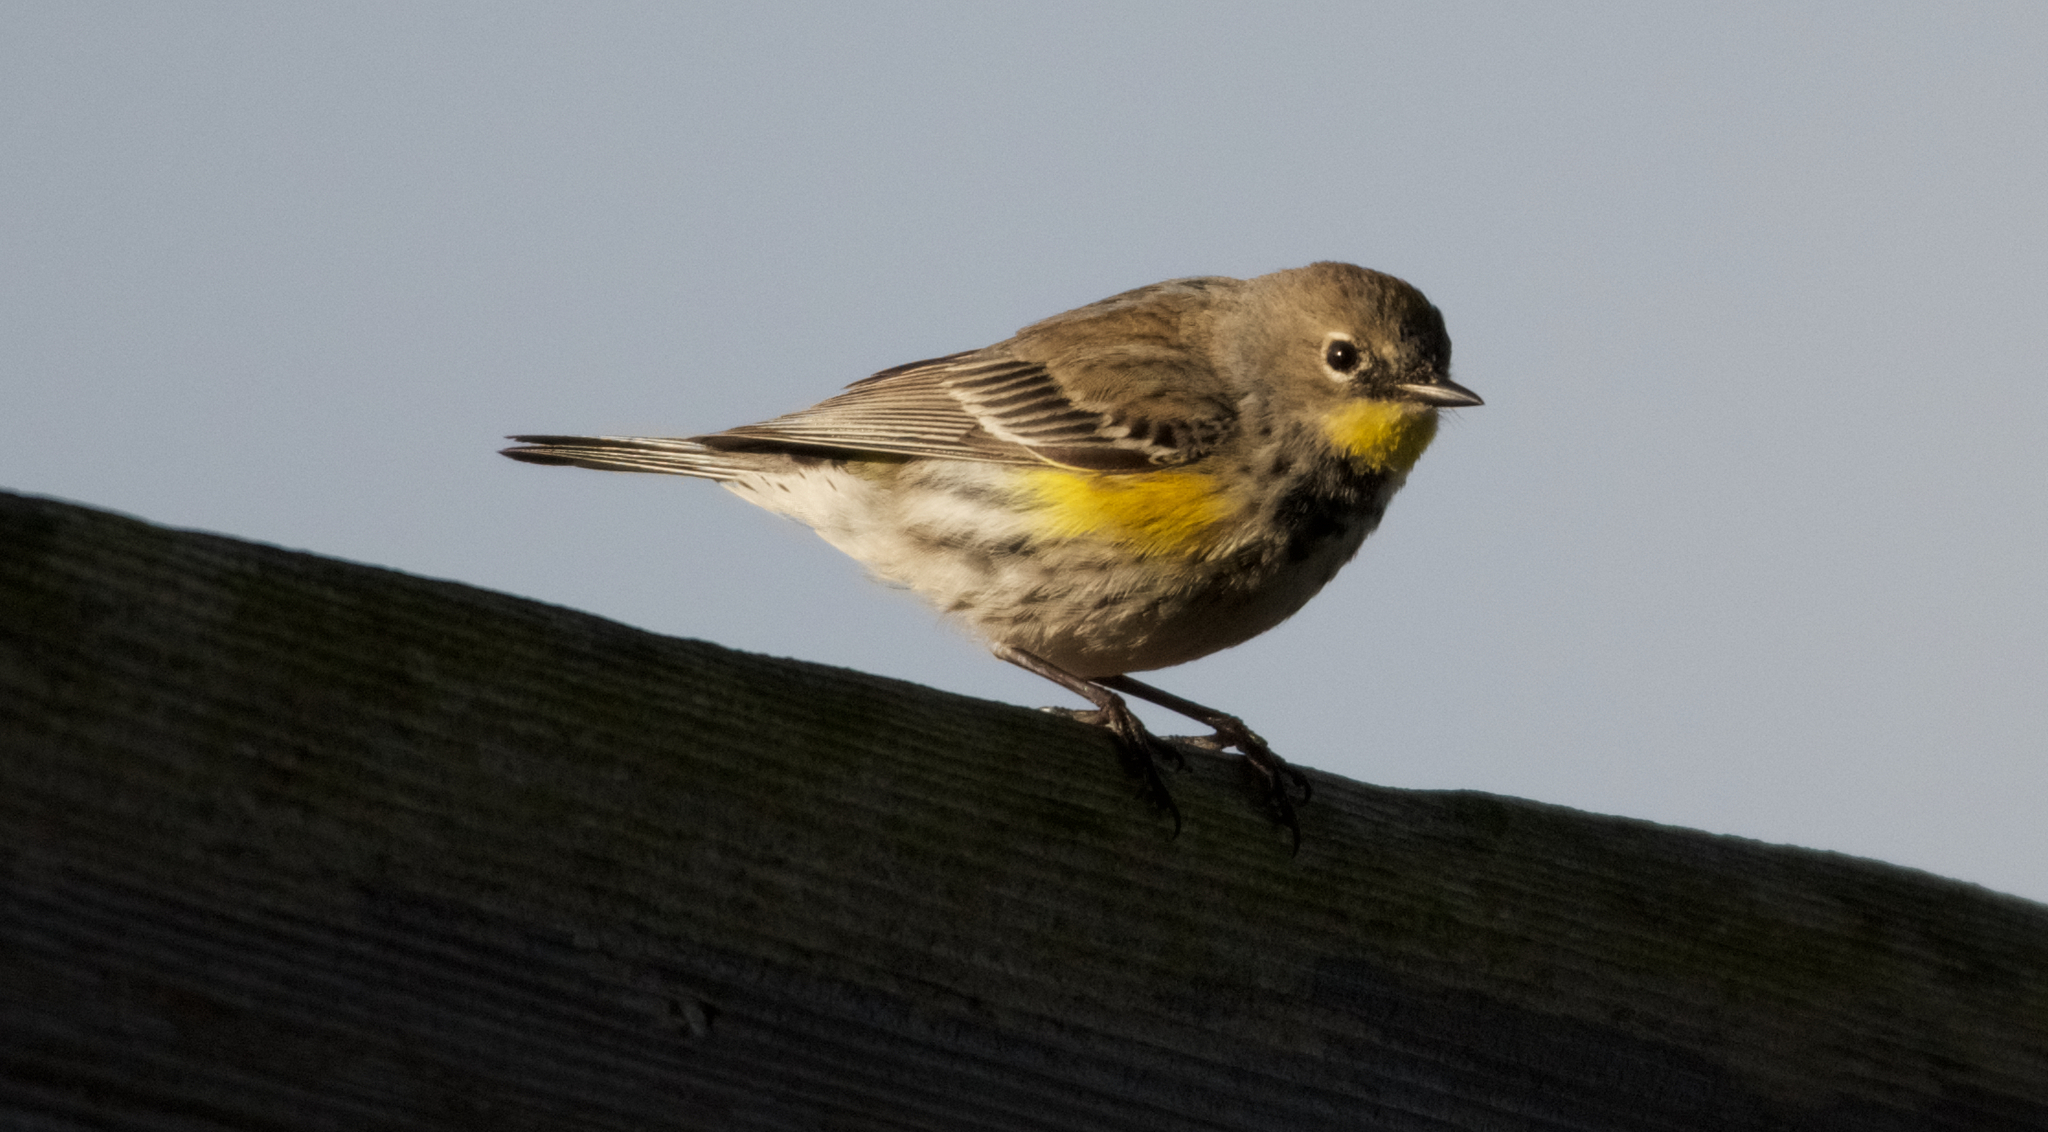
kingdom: Animalia
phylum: Chordata
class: Aves
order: Passeriformes
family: Parulidae
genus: Setophaga
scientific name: Setophaga coronata
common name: Myrtle warbler
